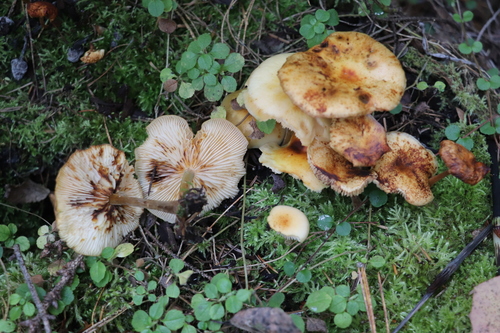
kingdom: Fungi
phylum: Basidiomycota
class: Agaricomycetes
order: Agaricales
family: Physalacriaceae
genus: Flammulina
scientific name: Flammulina velutipes
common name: Velvet shank
